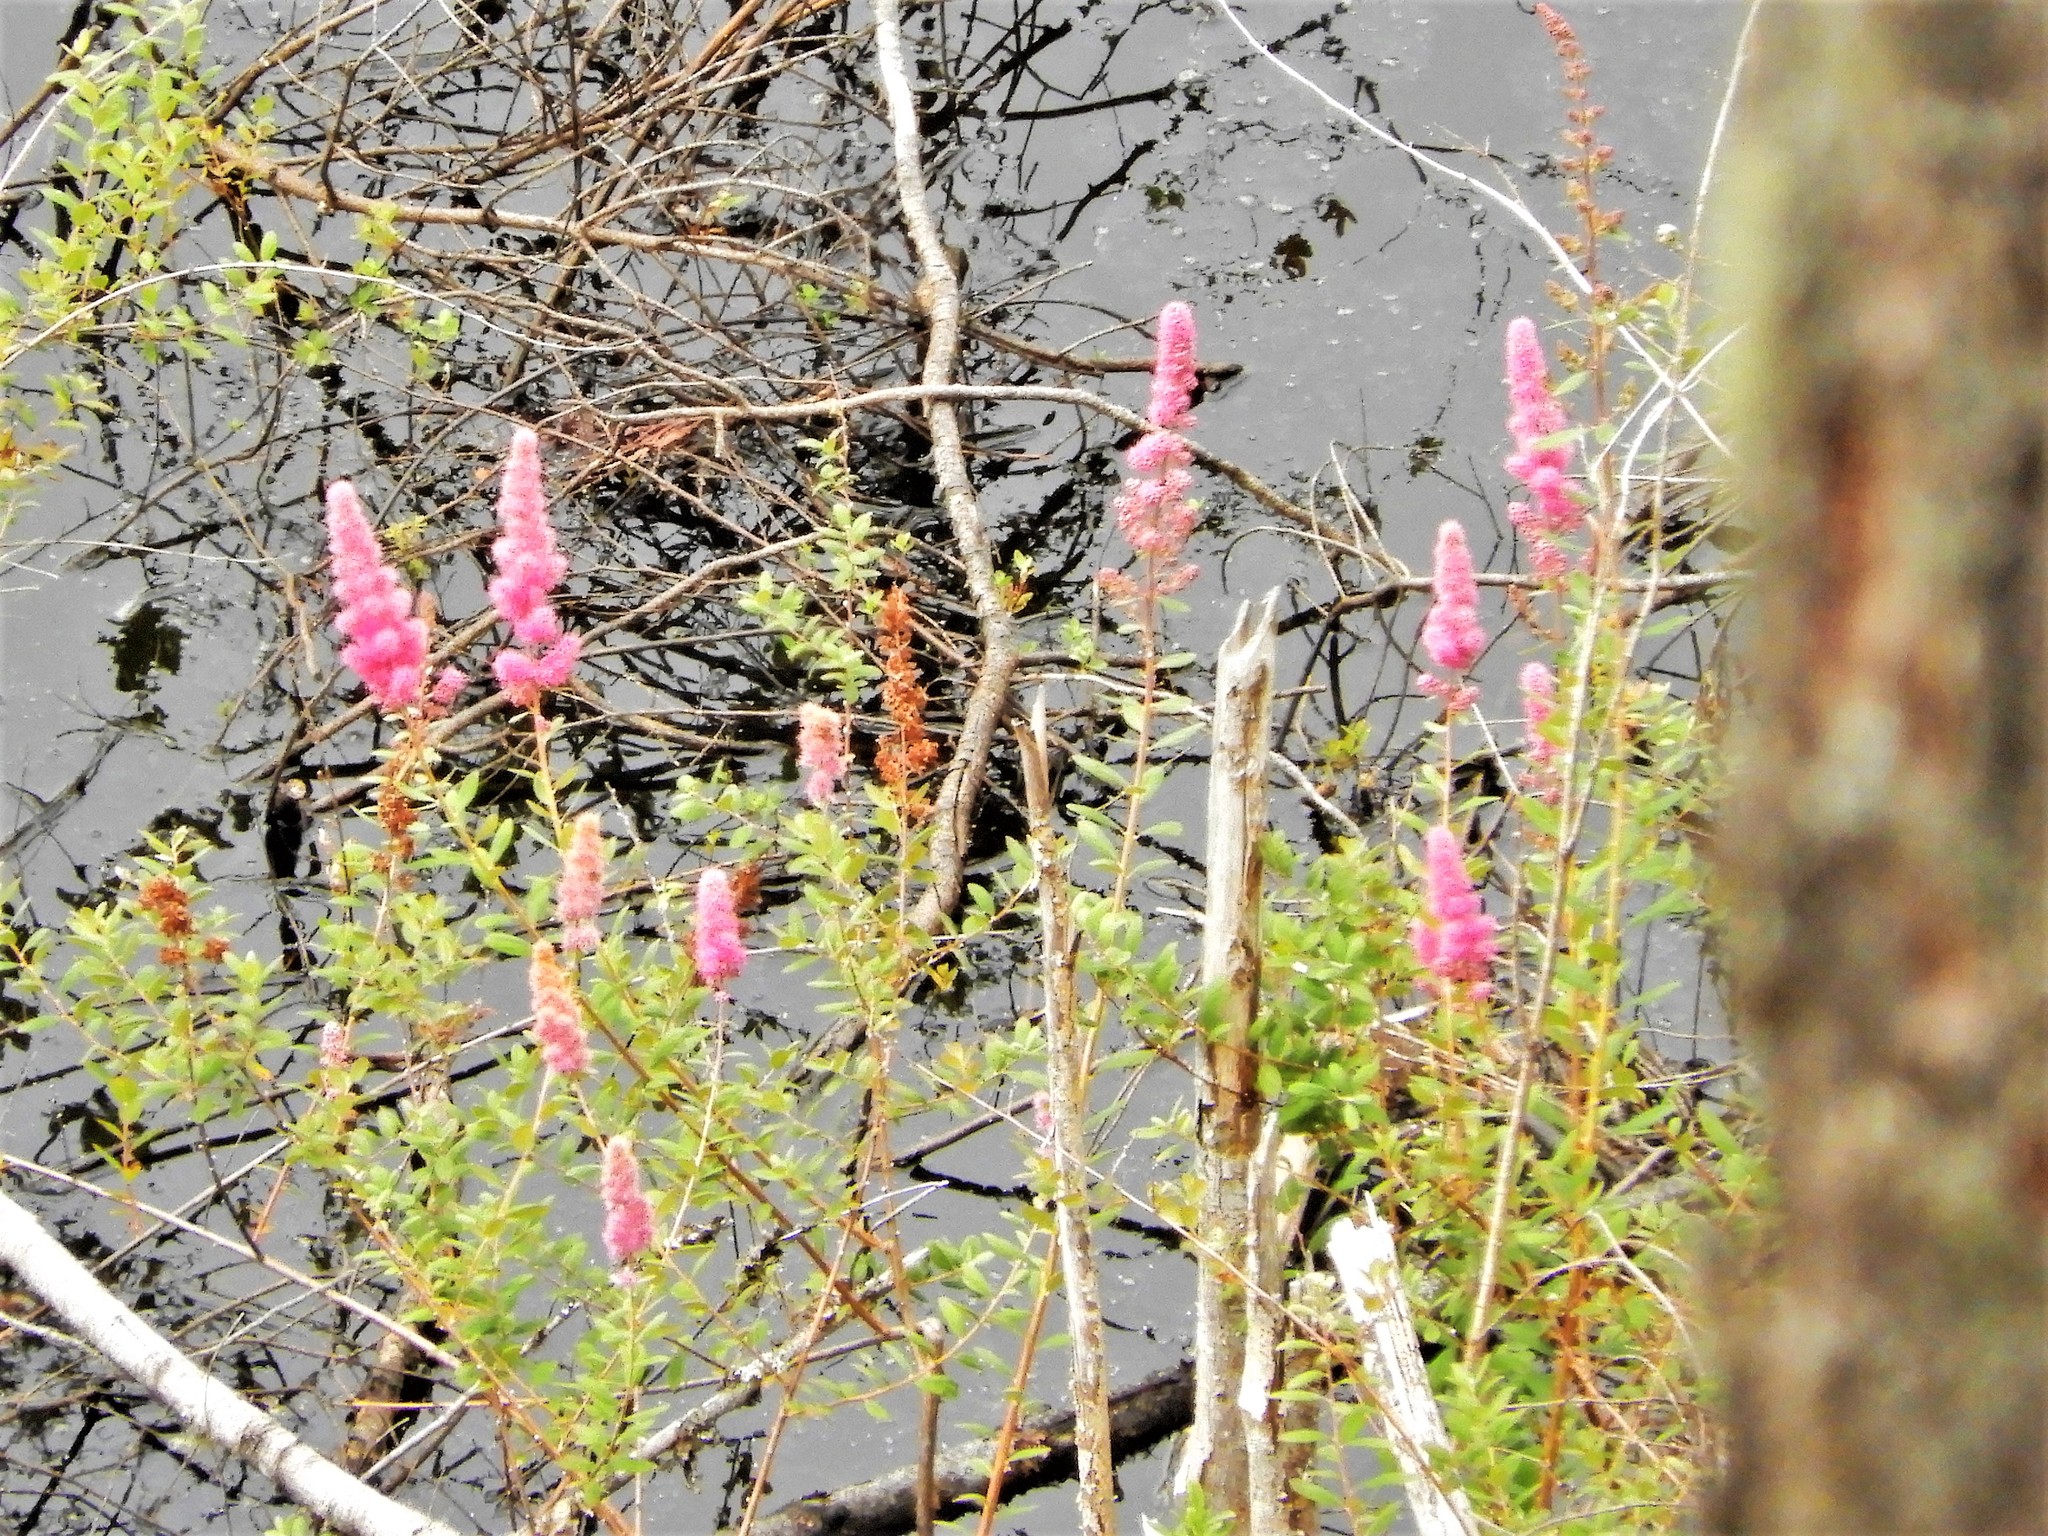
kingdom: Plantae
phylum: Tracheophyta
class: Magnoliopsida
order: Rosales
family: Rosaceae
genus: Spiraea
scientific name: Spiraea douglasii
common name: Steeplebush
